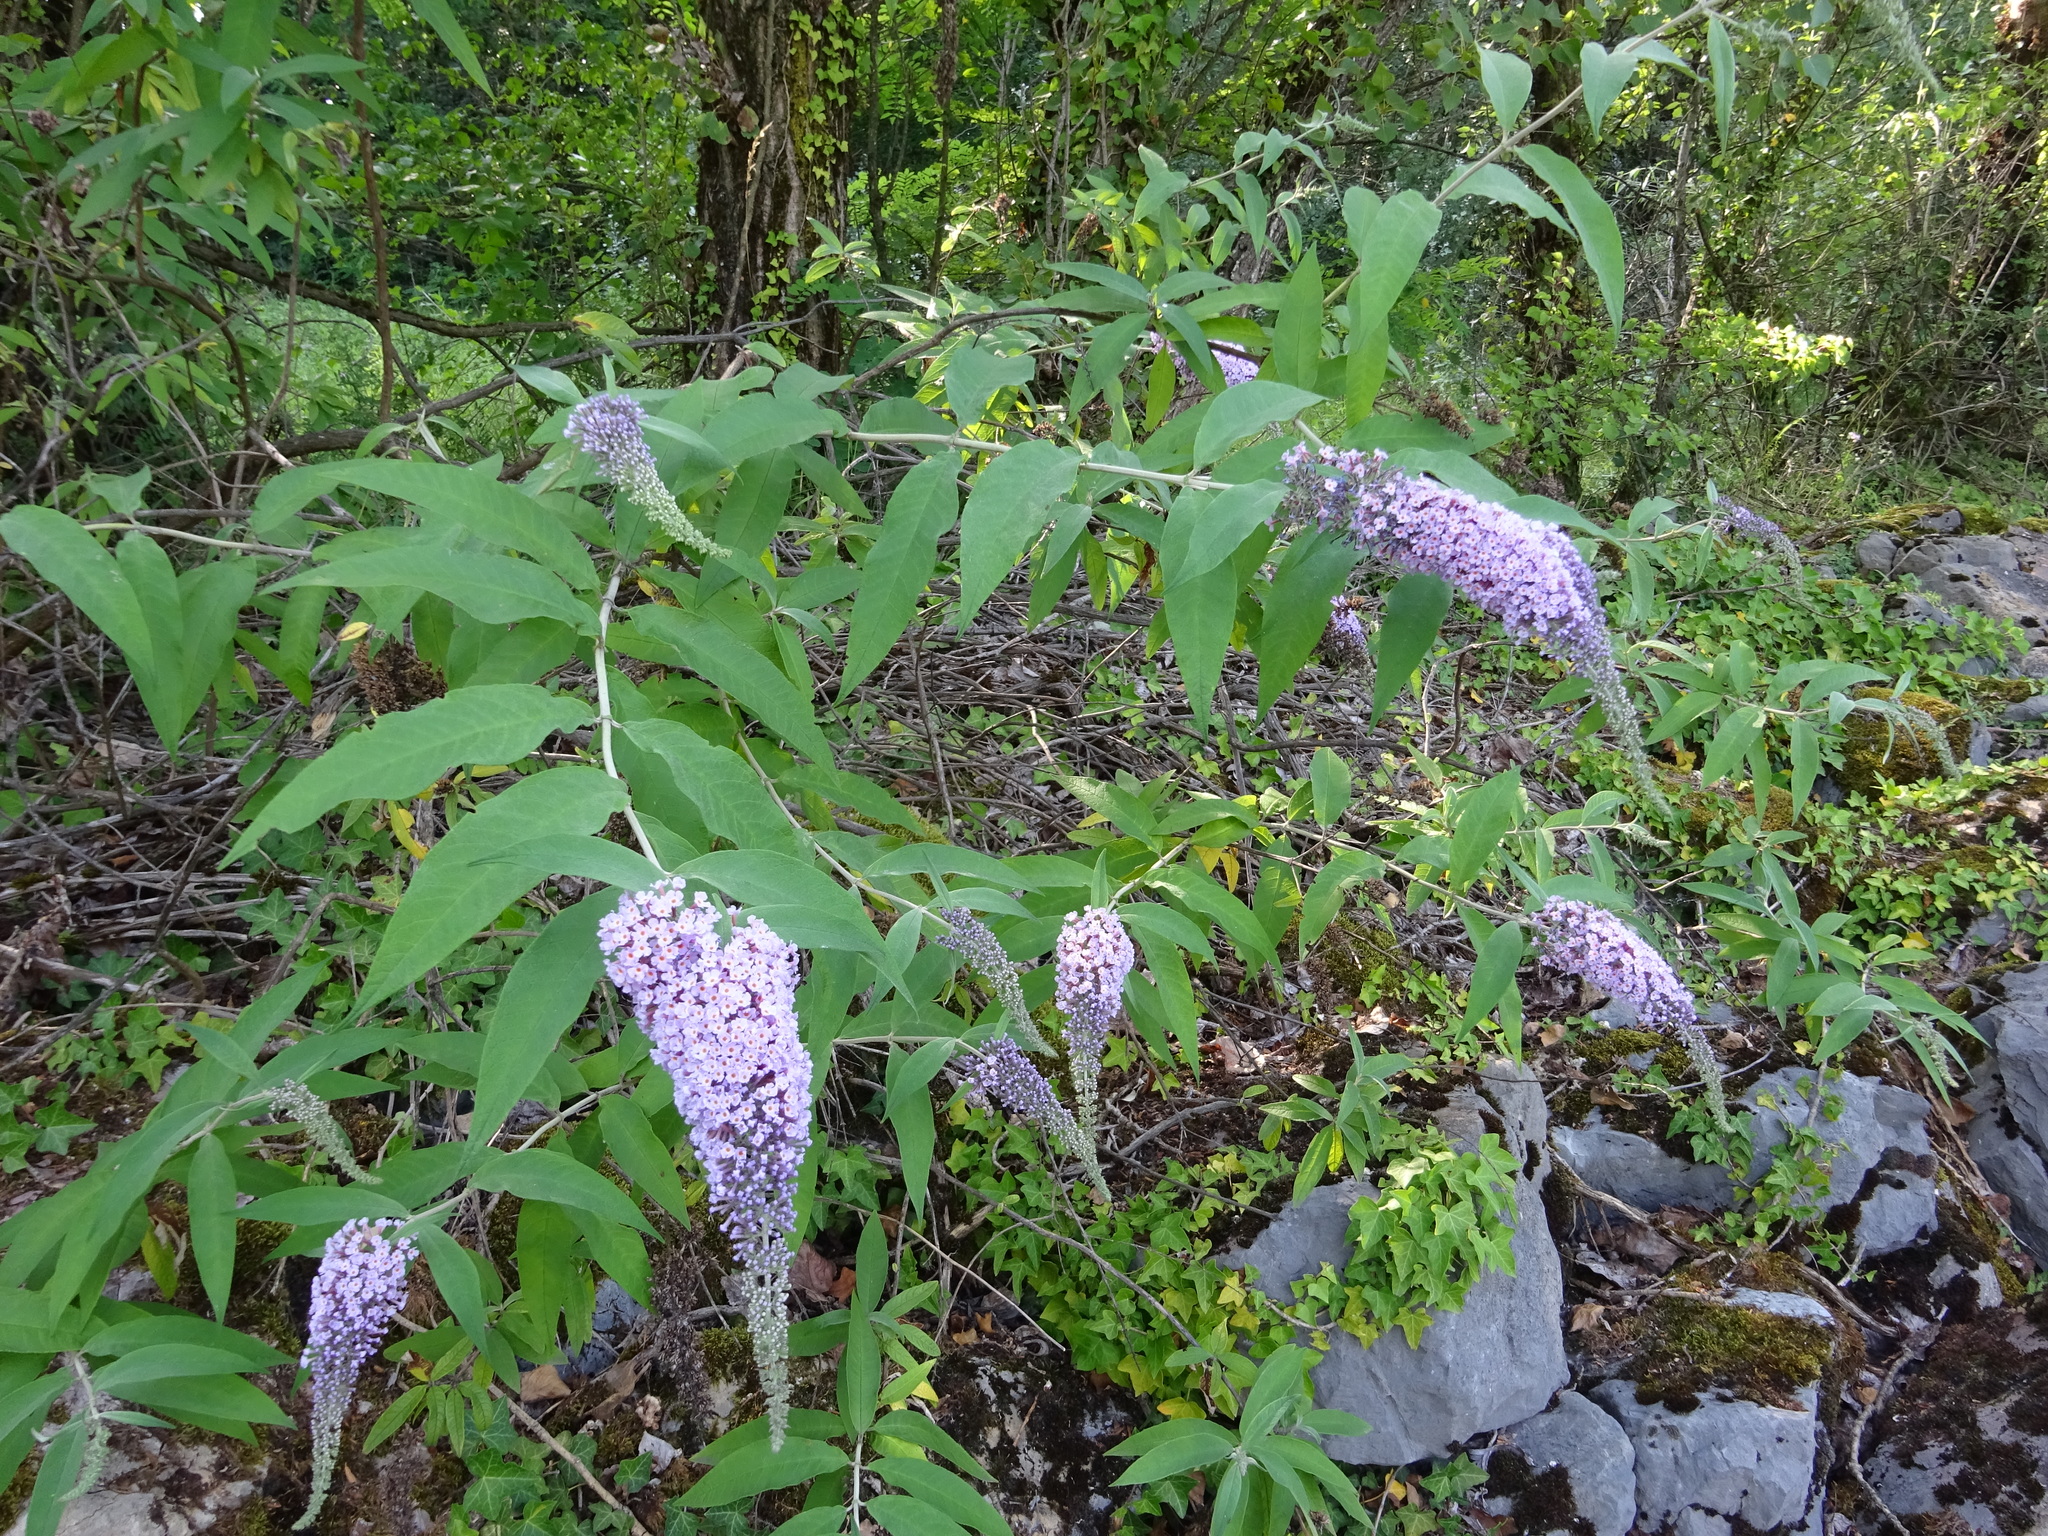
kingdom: Plantae
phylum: Tracheophyta
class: Magnoliopsida
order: Lamiales
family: Scrophulariaceae
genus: Buddleja
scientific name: Buddleja davidii
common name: Butterfly-bush
